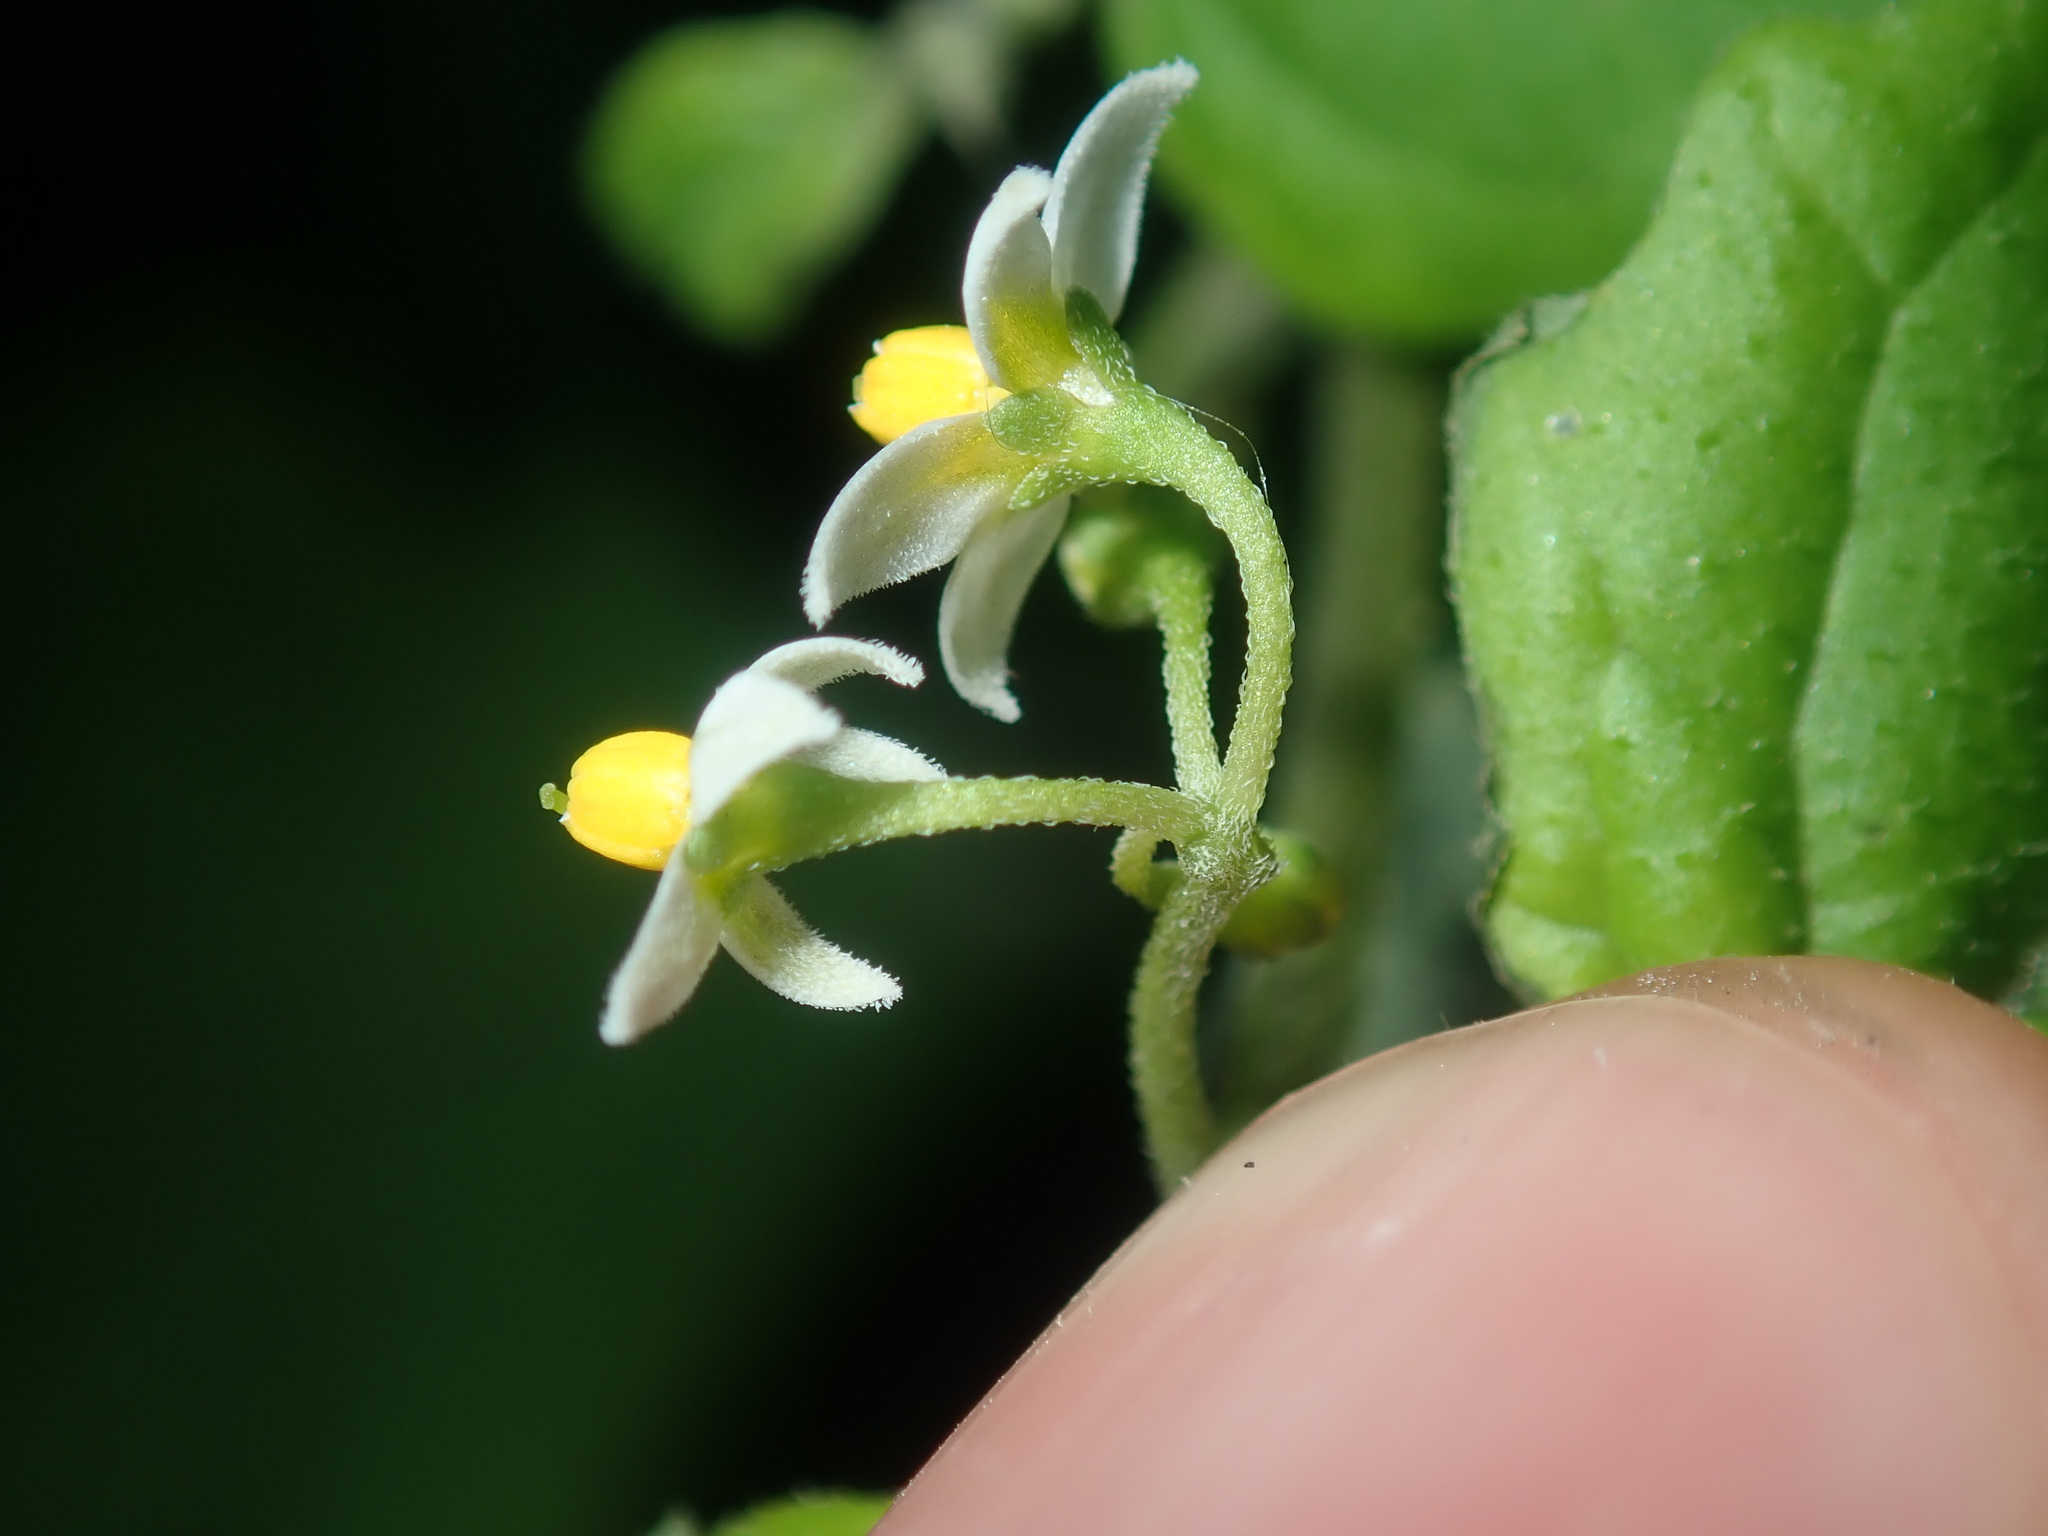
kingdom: Plantae
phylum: Tracheophyta
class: Magnoliopsida
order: Solanales
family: Solanaceae
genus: Solanum
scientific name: Solanum americanum
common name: American black nightshade
